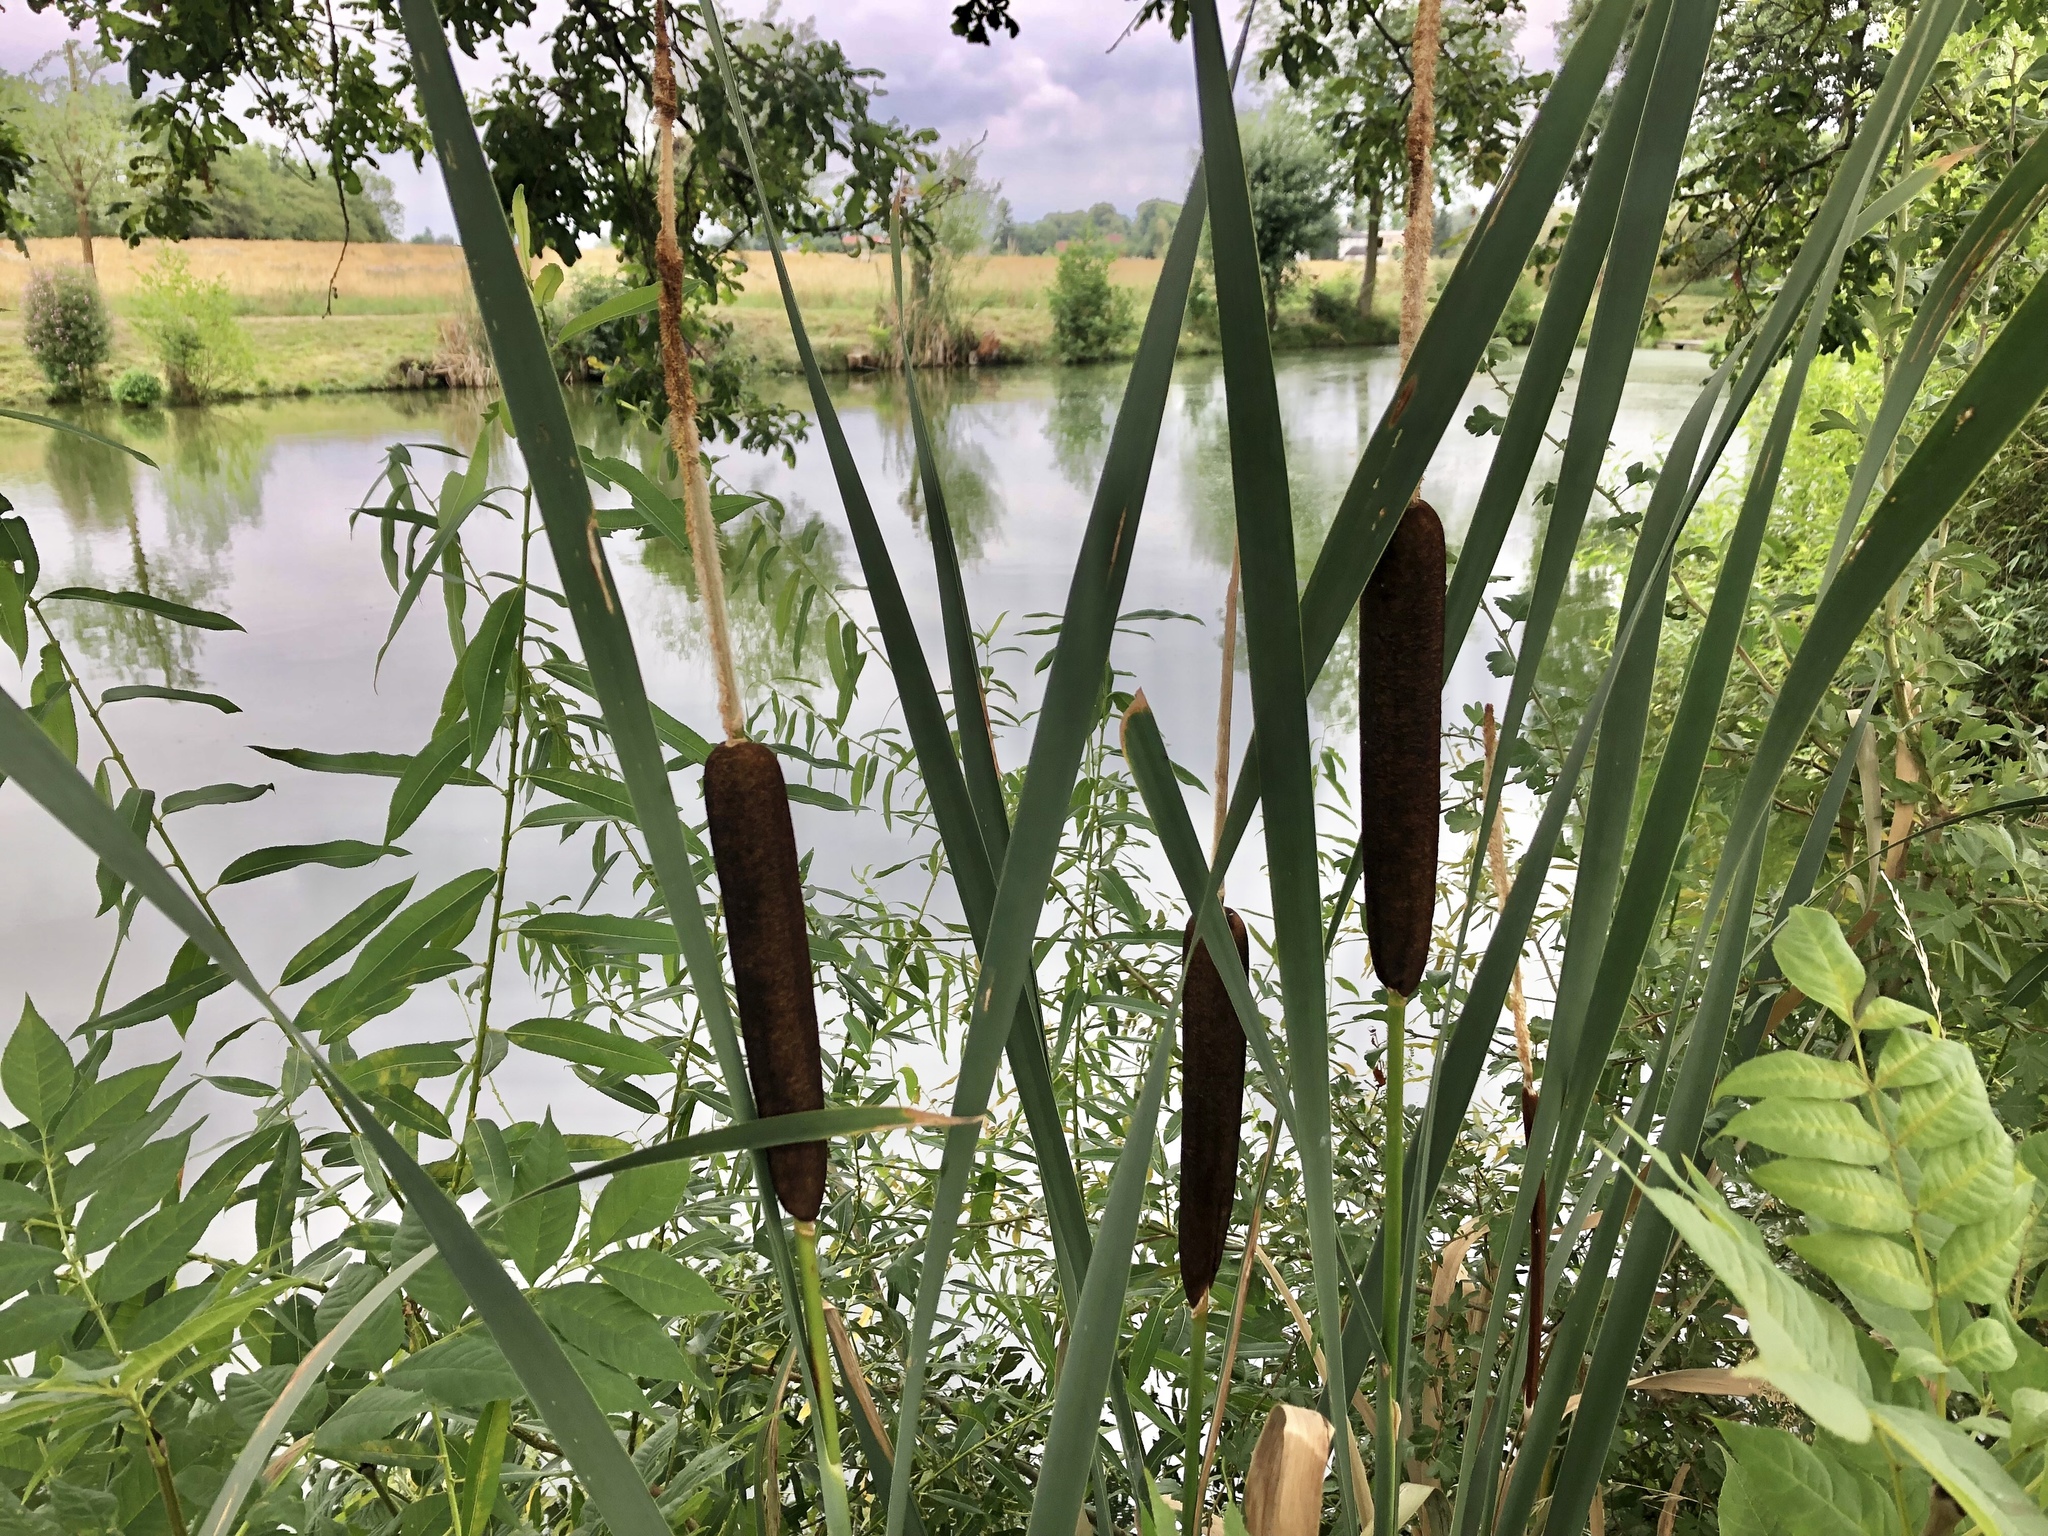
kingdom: Plantae
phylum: Tracheophyta
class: Liliopsida
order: Poales
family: Typhaceae
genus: Typha
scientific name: Typha latifolia
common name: Broadleaf cattail
